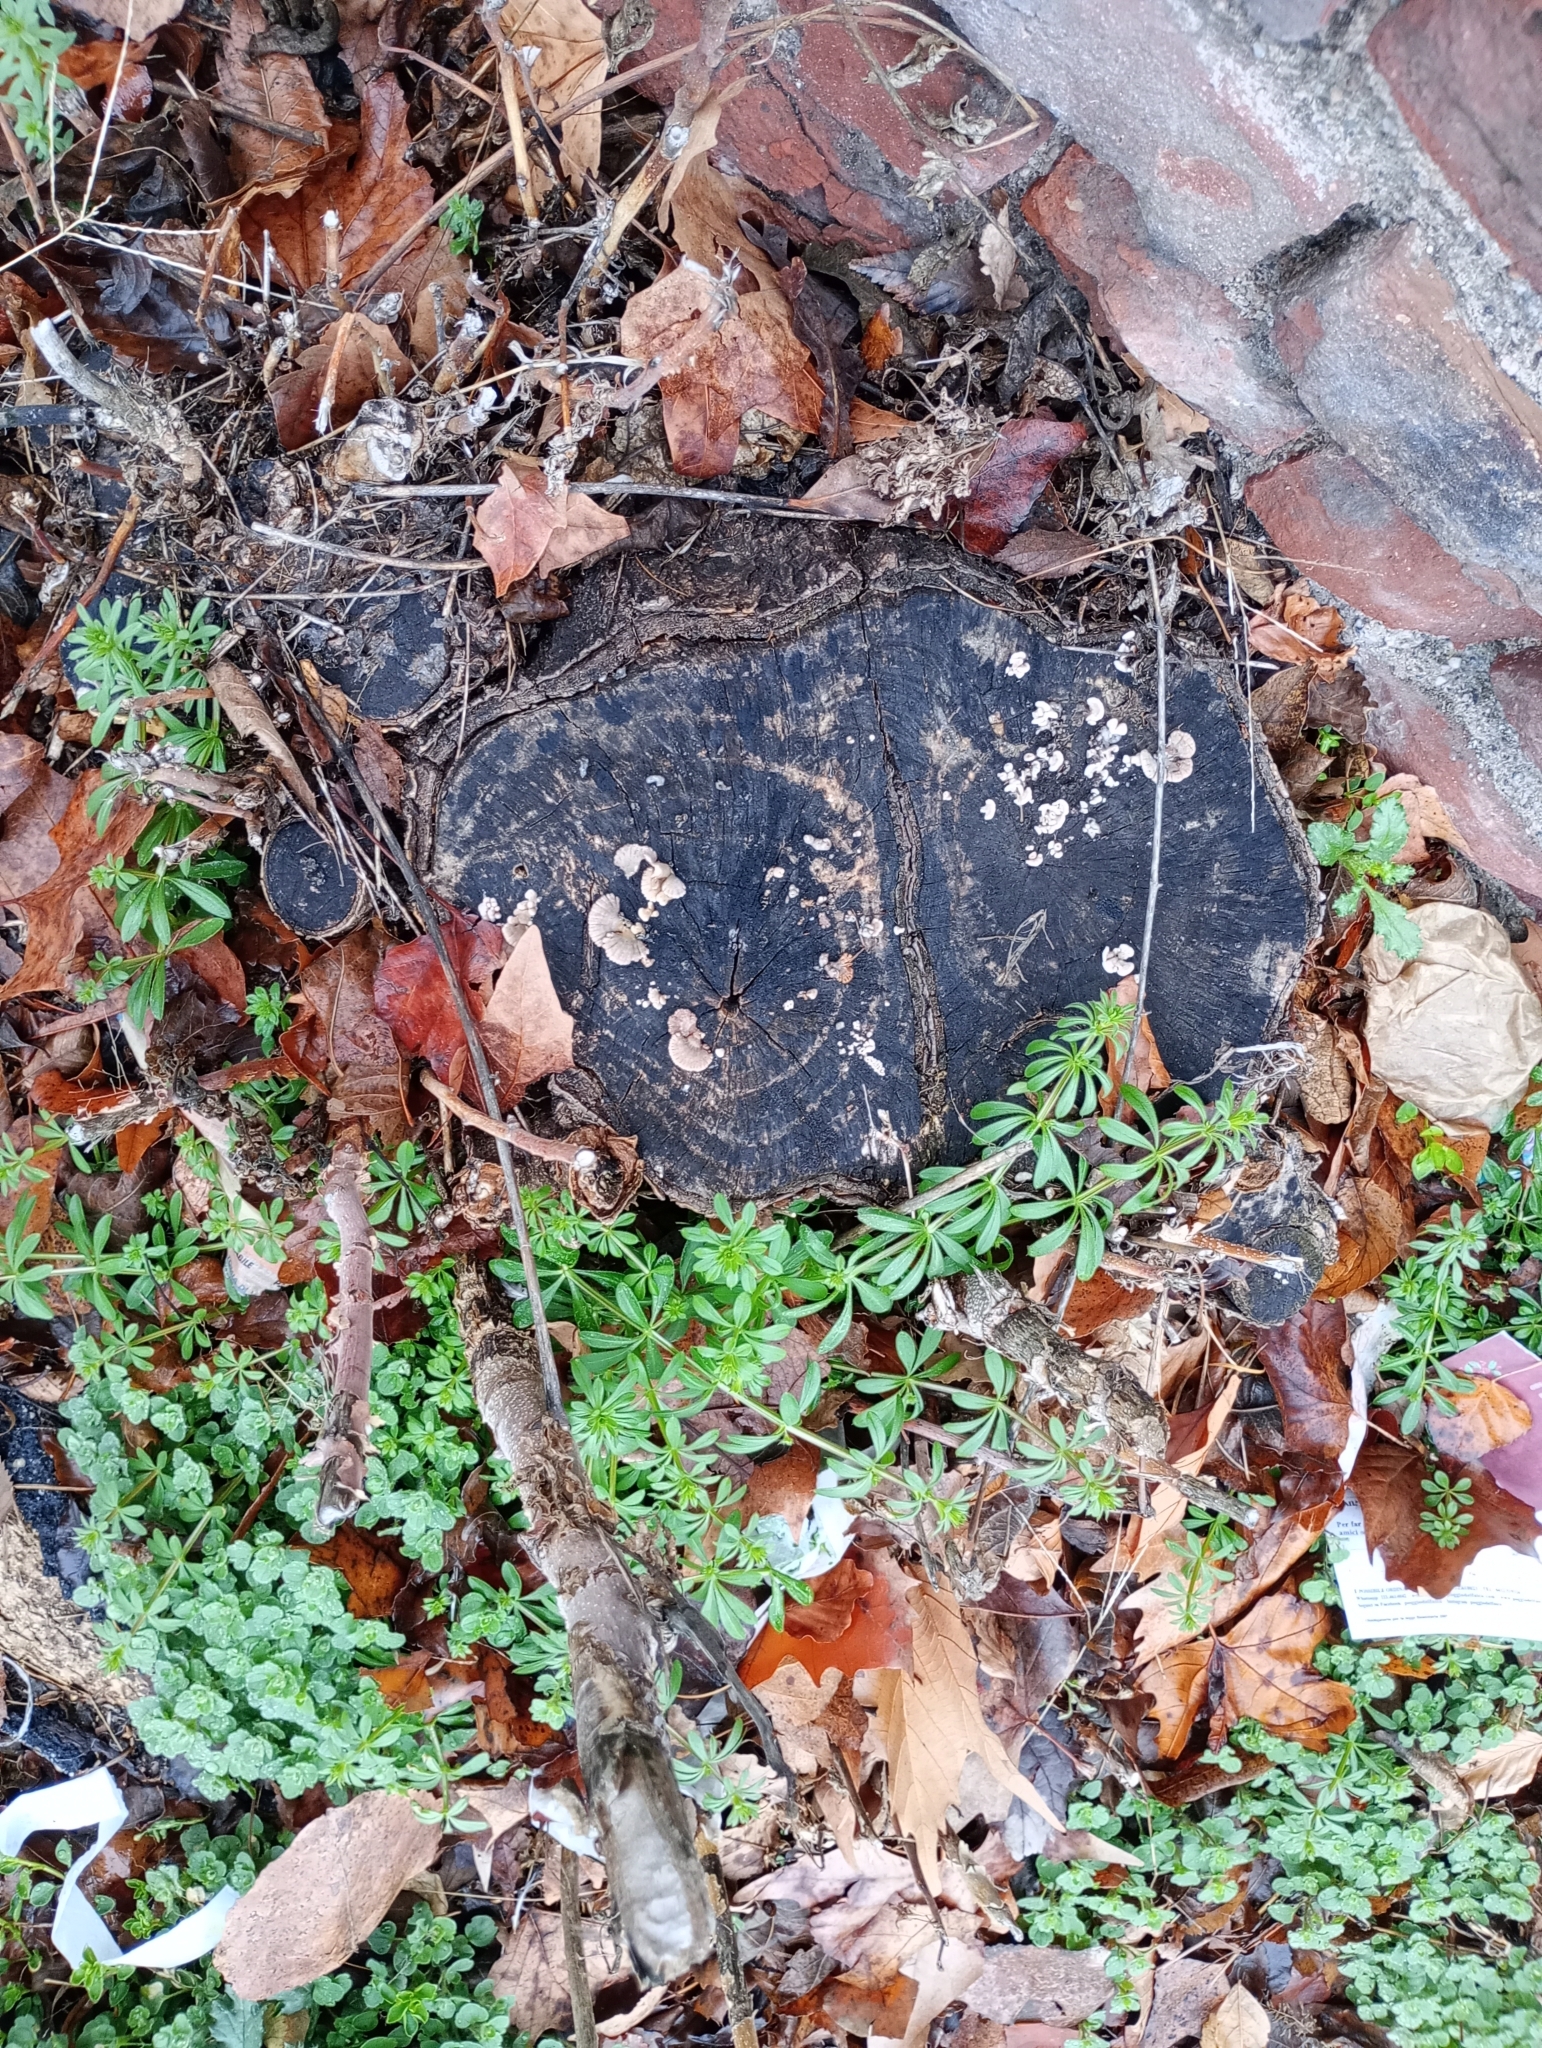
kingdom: Fungi
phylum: Basidiomycota
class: Agaricomycetes
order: Agaricales
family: Schizophyllaceae
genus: Schizophyllum
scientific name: Schizophyllum commune
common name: Common porecrust
